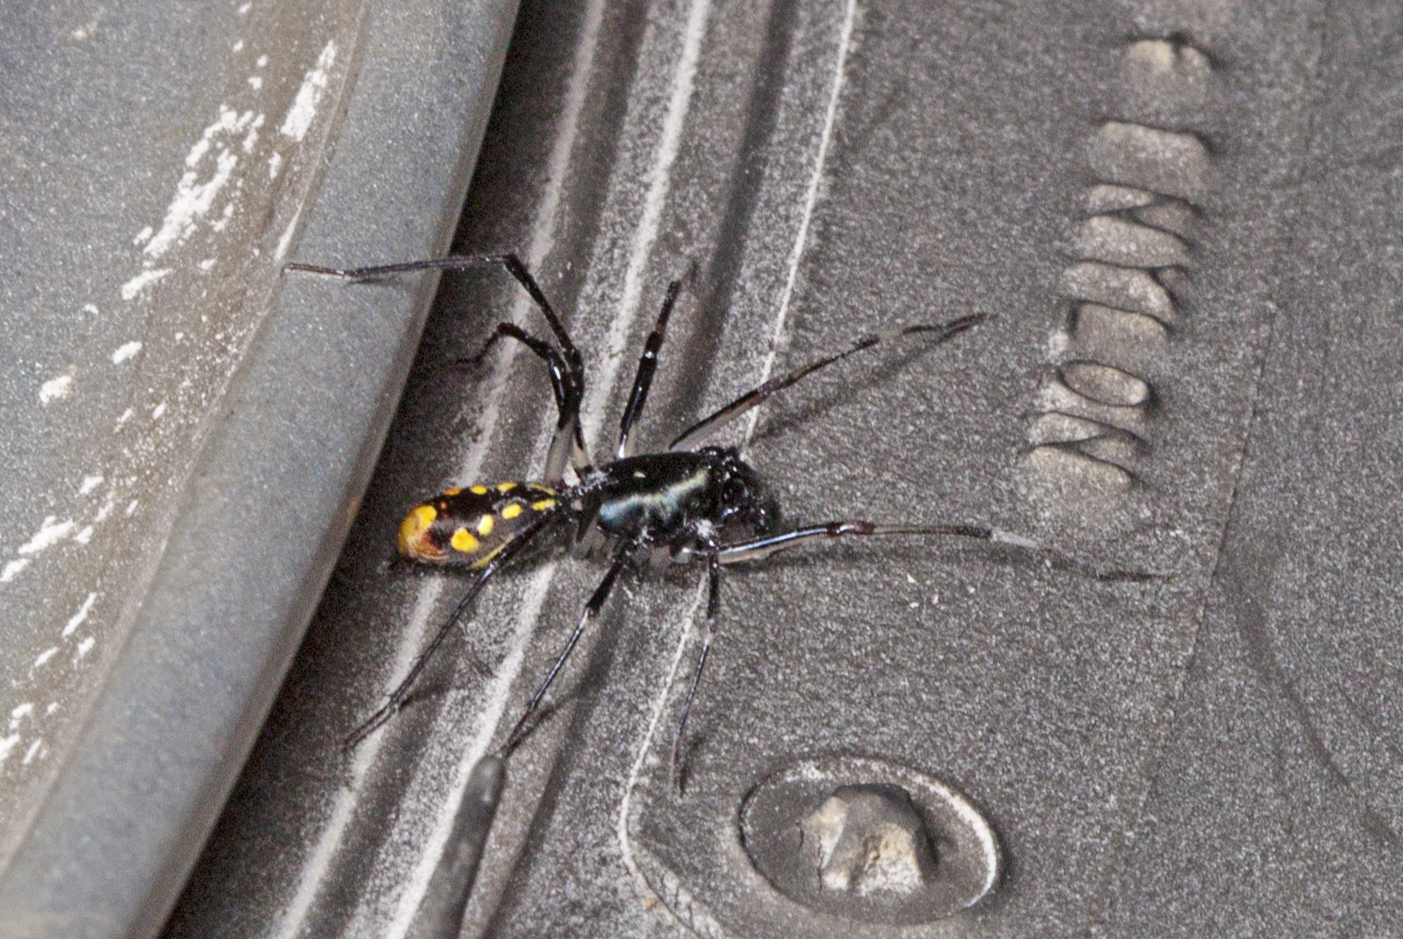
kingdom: Animalia
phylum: Arthropoda
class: Arachnida
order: Araneae
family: Zodariidae
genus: Subasteron
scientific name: Subasteron daviesae
